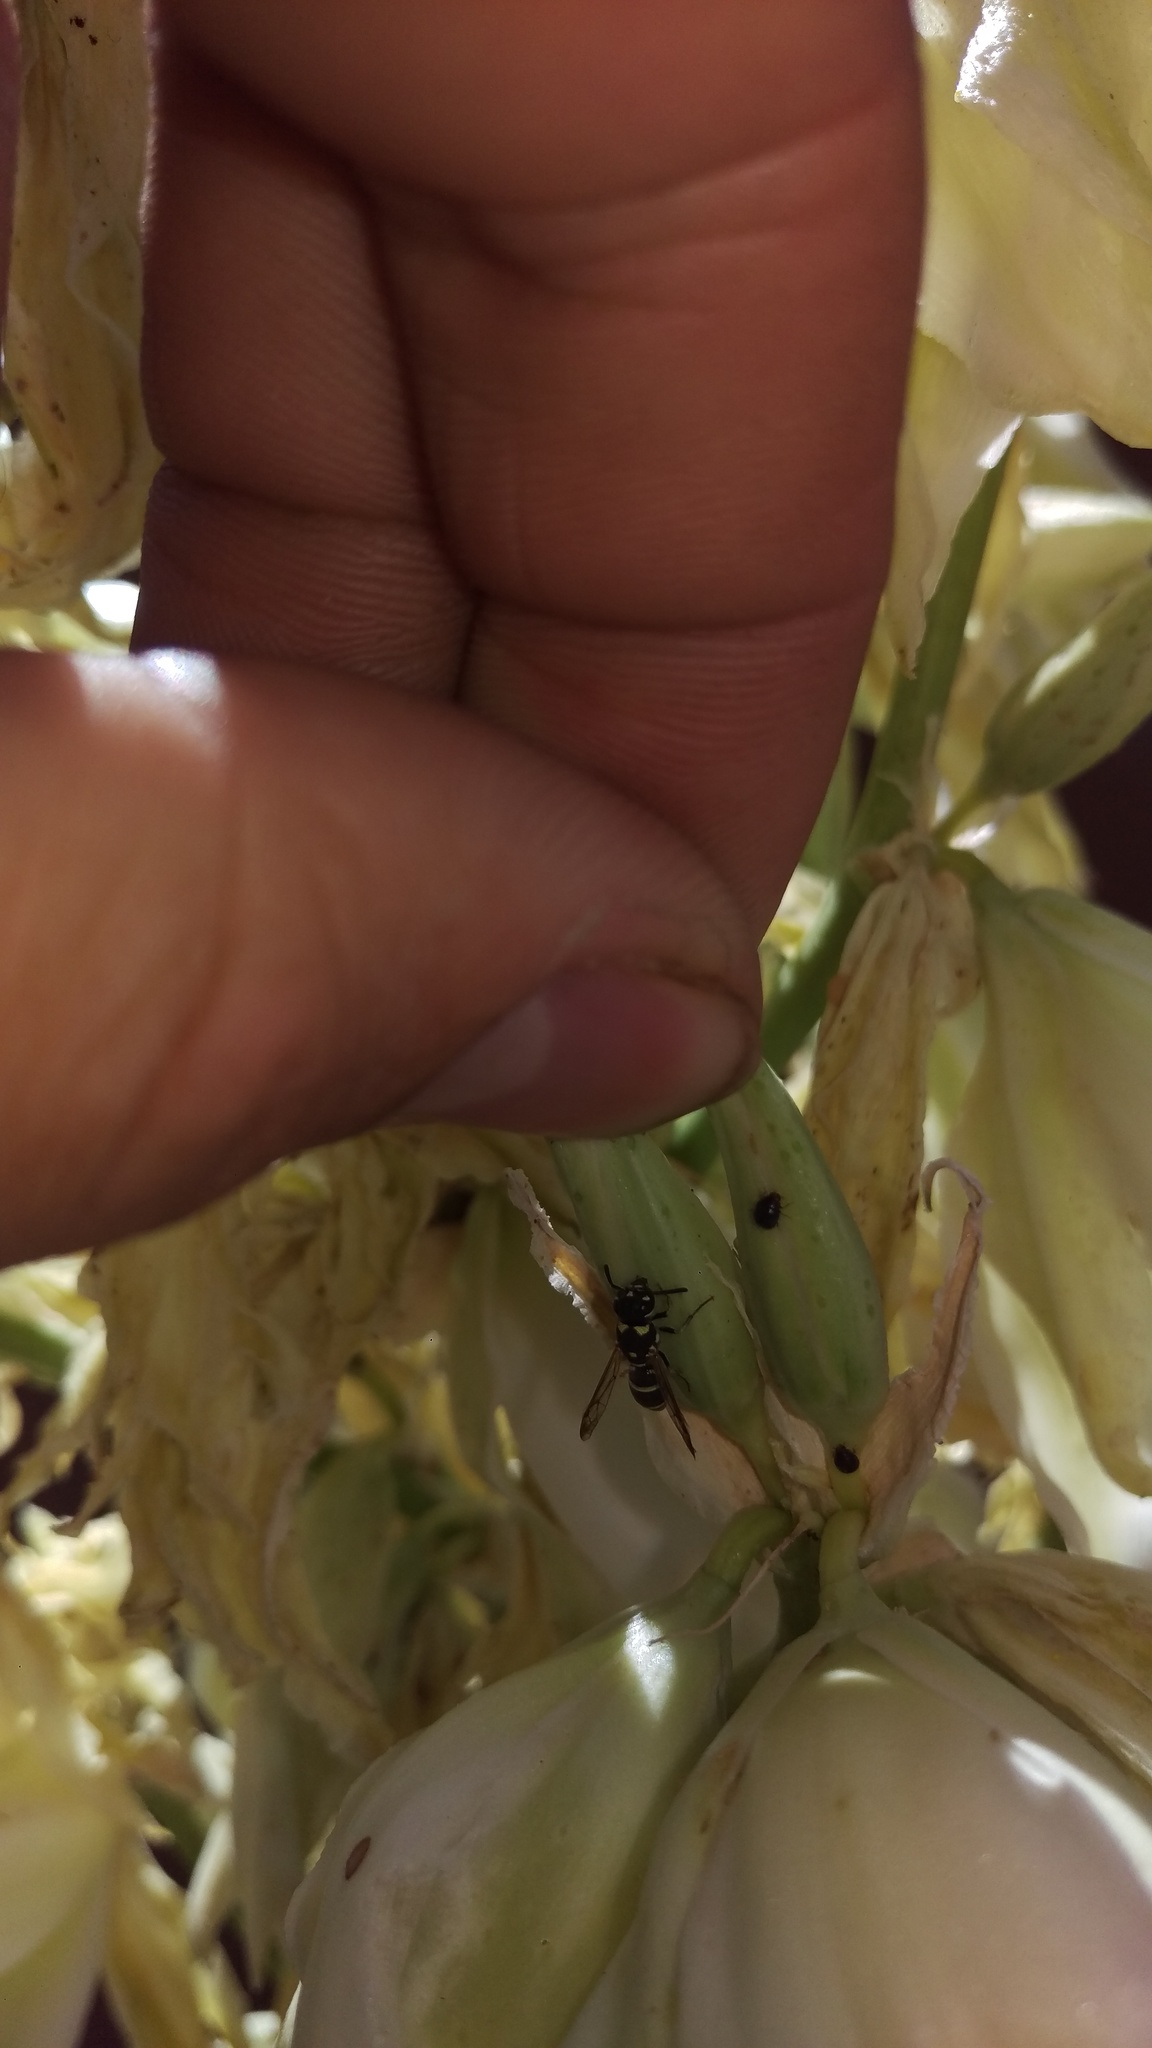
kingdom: Animalia
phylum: Arthropoda
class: Insecta
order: Hymenoptera
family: Eumenidae
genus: Parancistrocerus
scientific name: Parancistrocerus
